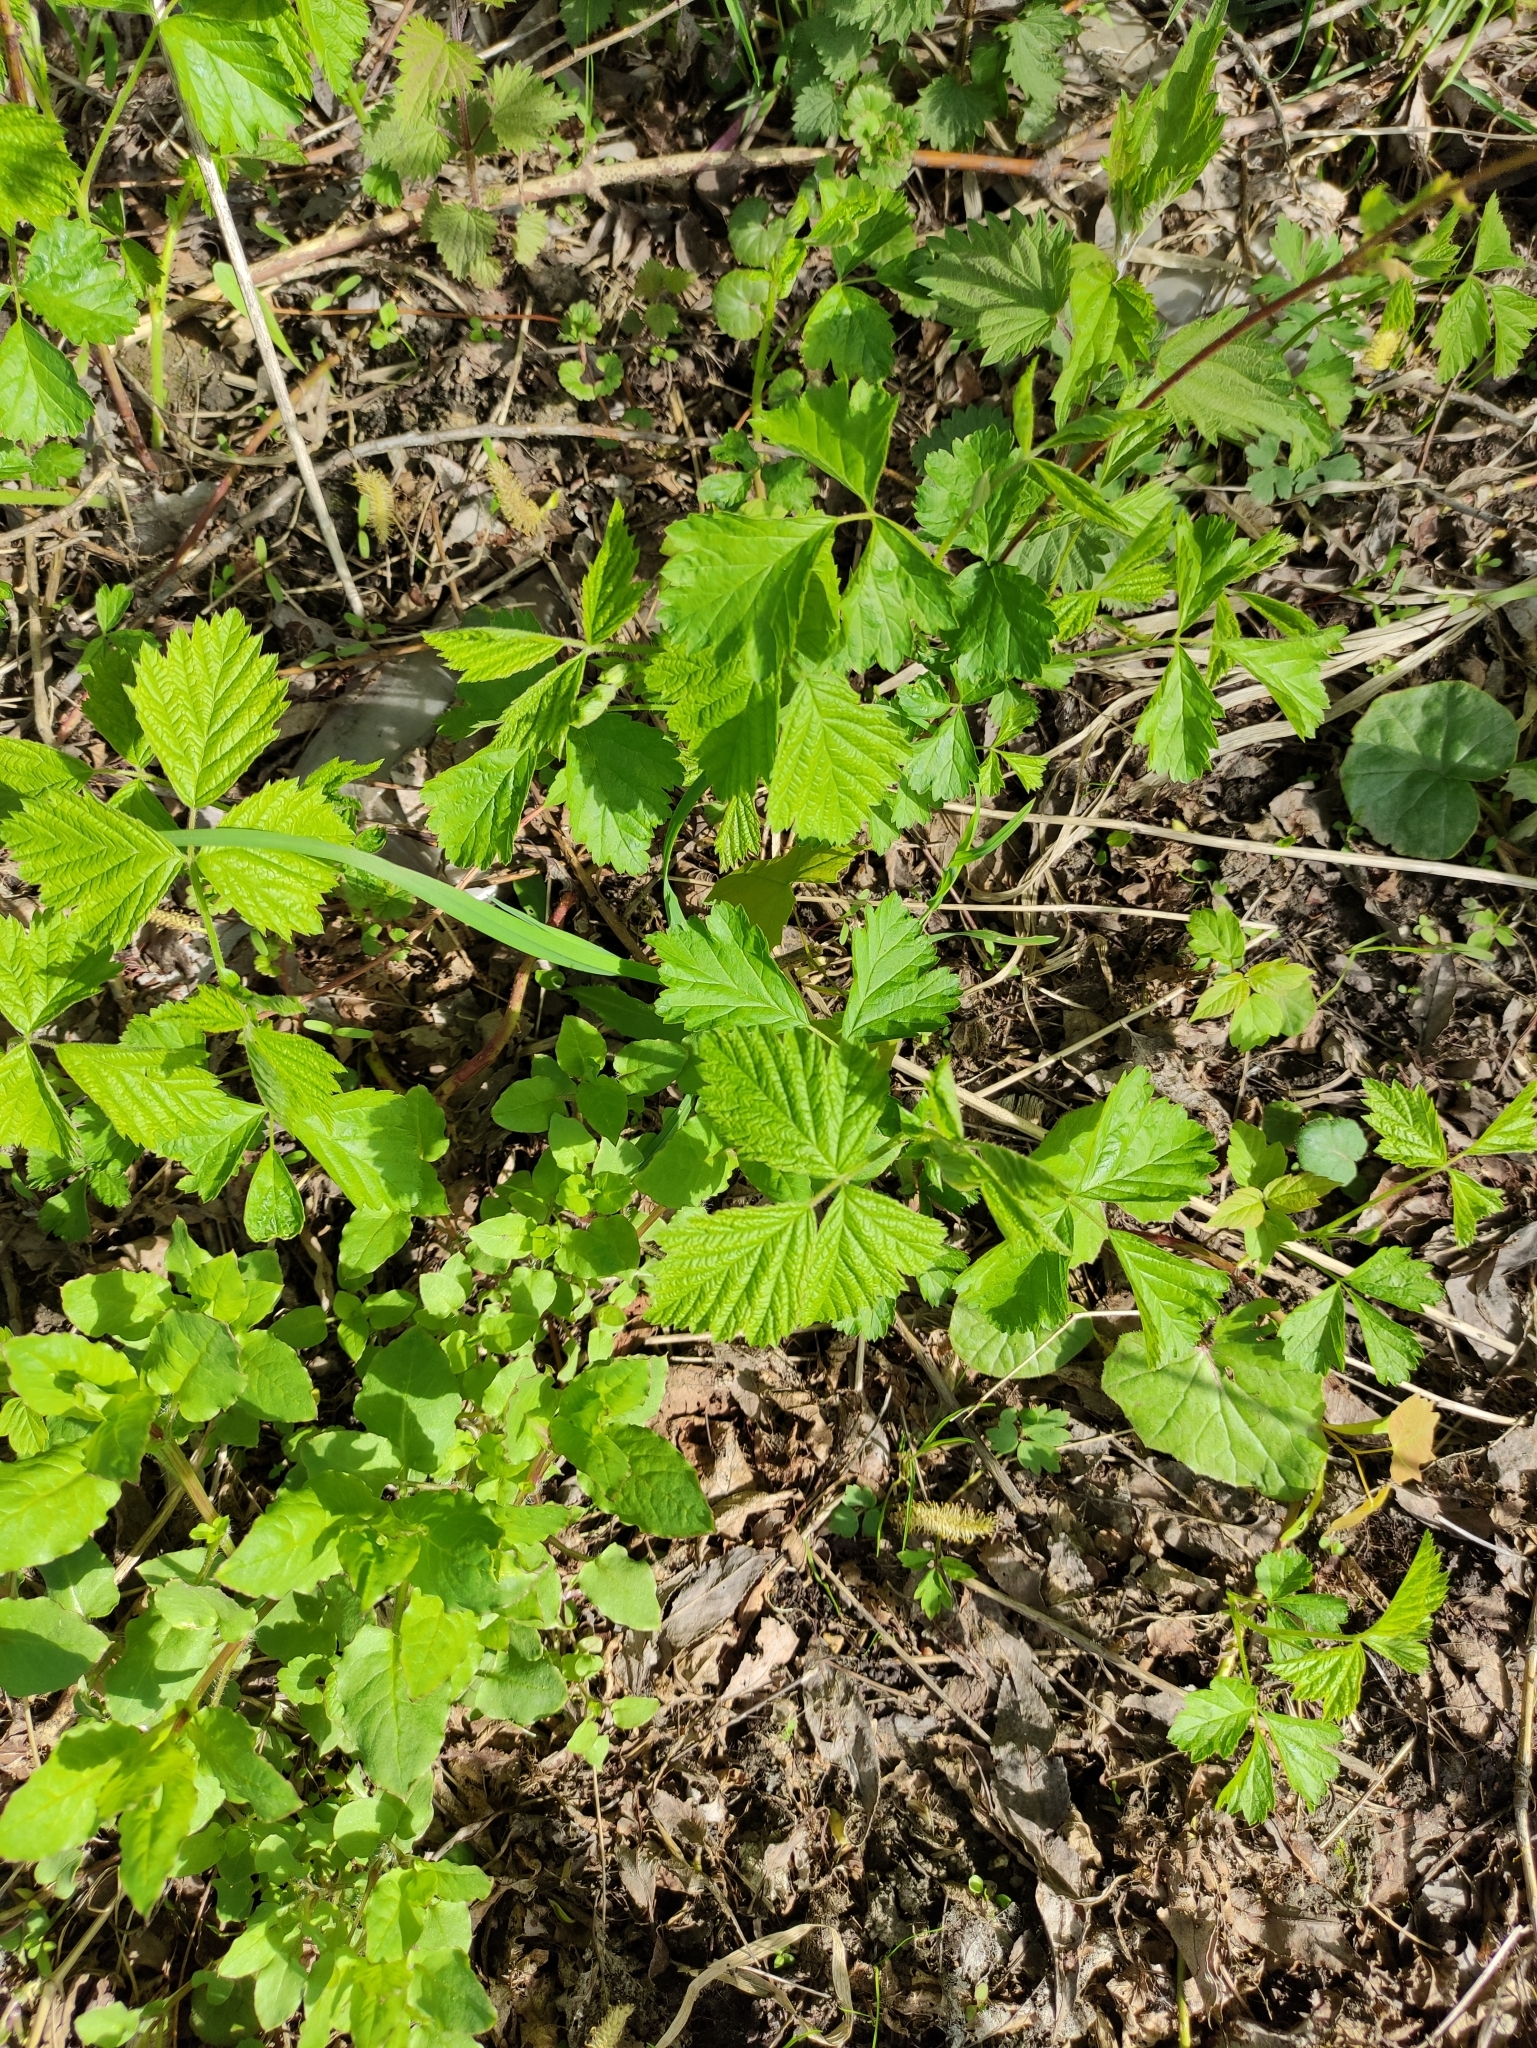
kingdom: Plantae
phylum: Tracheophyta
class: Magnoliopsida
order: Rosales
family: Rosaceae
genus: Rubus
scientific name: Rubus caesius
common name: Dewberry
